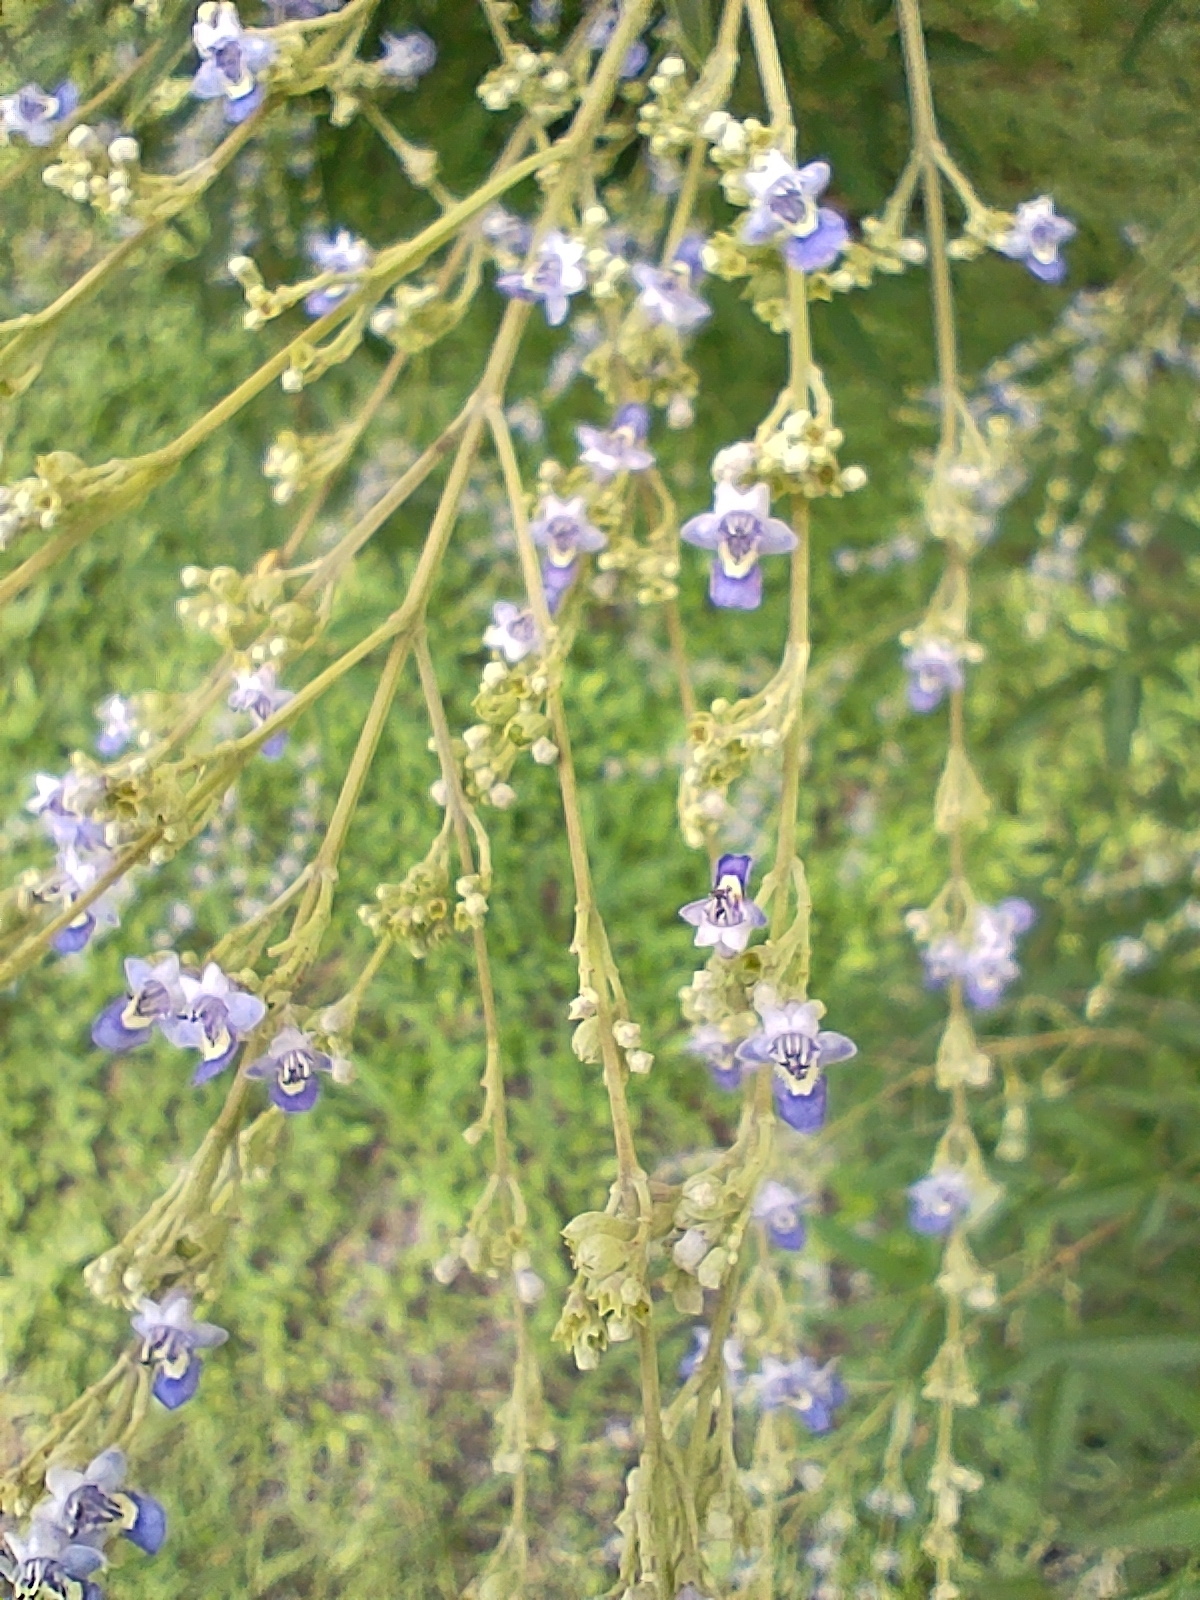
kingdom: Plantae
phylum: Tracheophyta
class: Magnoliopsida
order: Lamiales
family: Lamiaceae
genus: Vitex
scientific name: Vitex negundo
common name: Chinese chastetree
